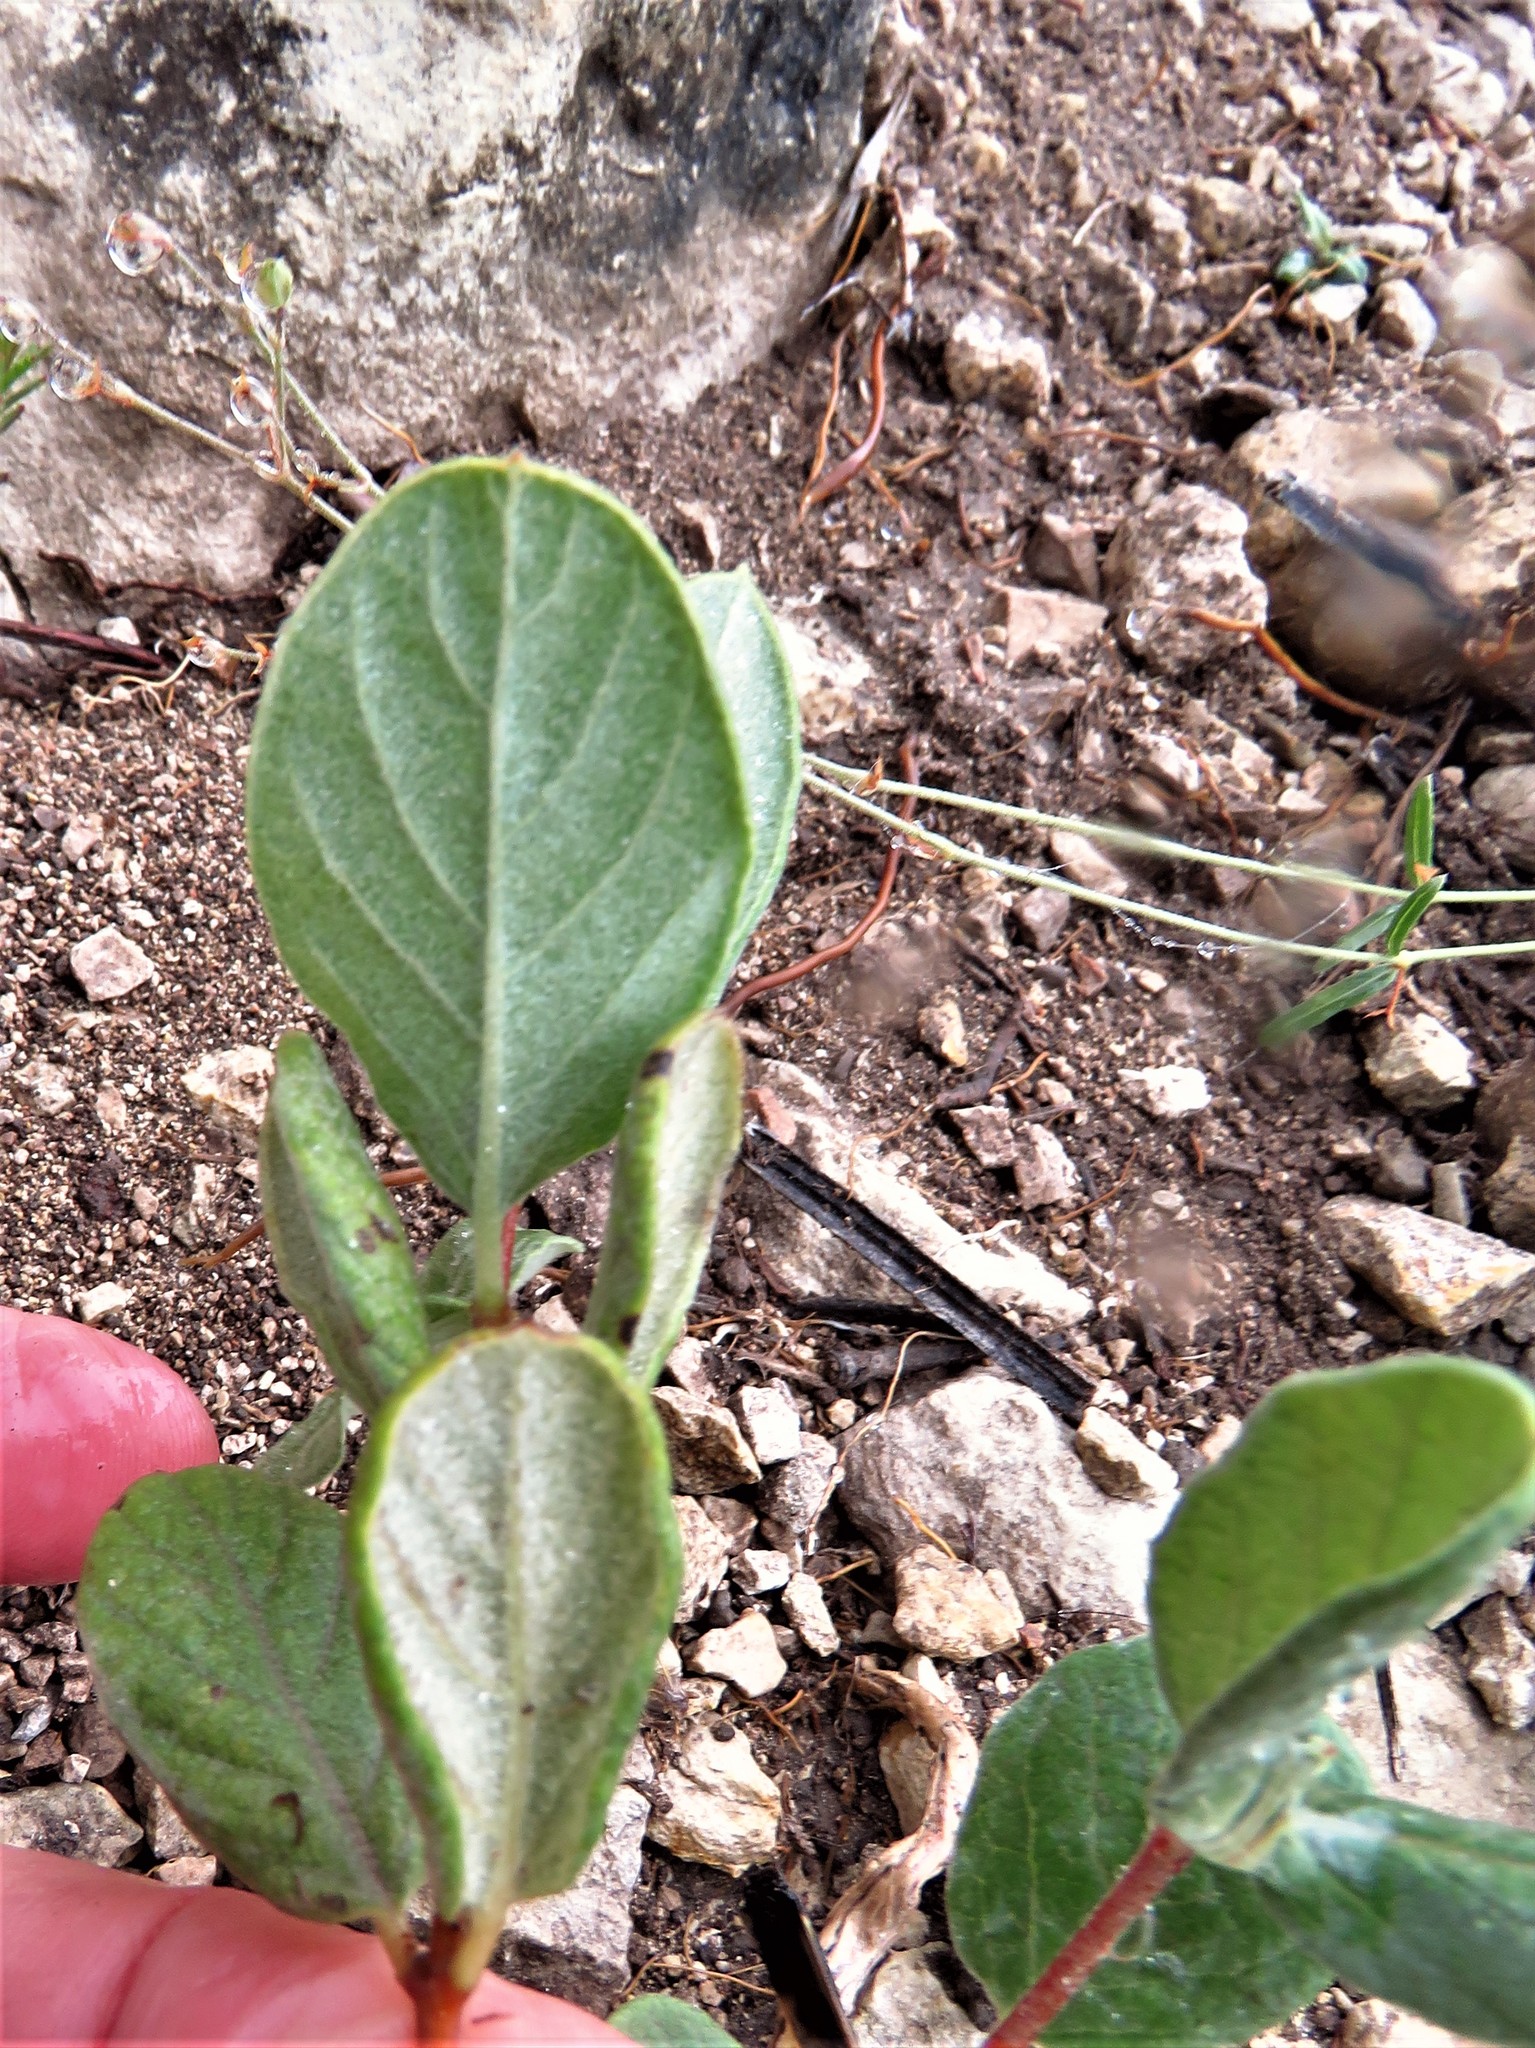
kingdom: Plantae
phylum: Tracheophyta
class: Magnoliopsida
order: Gentianales
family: Apocynaceae
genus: Mandevilla
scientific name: Mandevilla macrosiphon
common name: Plateau rocktrumpet
